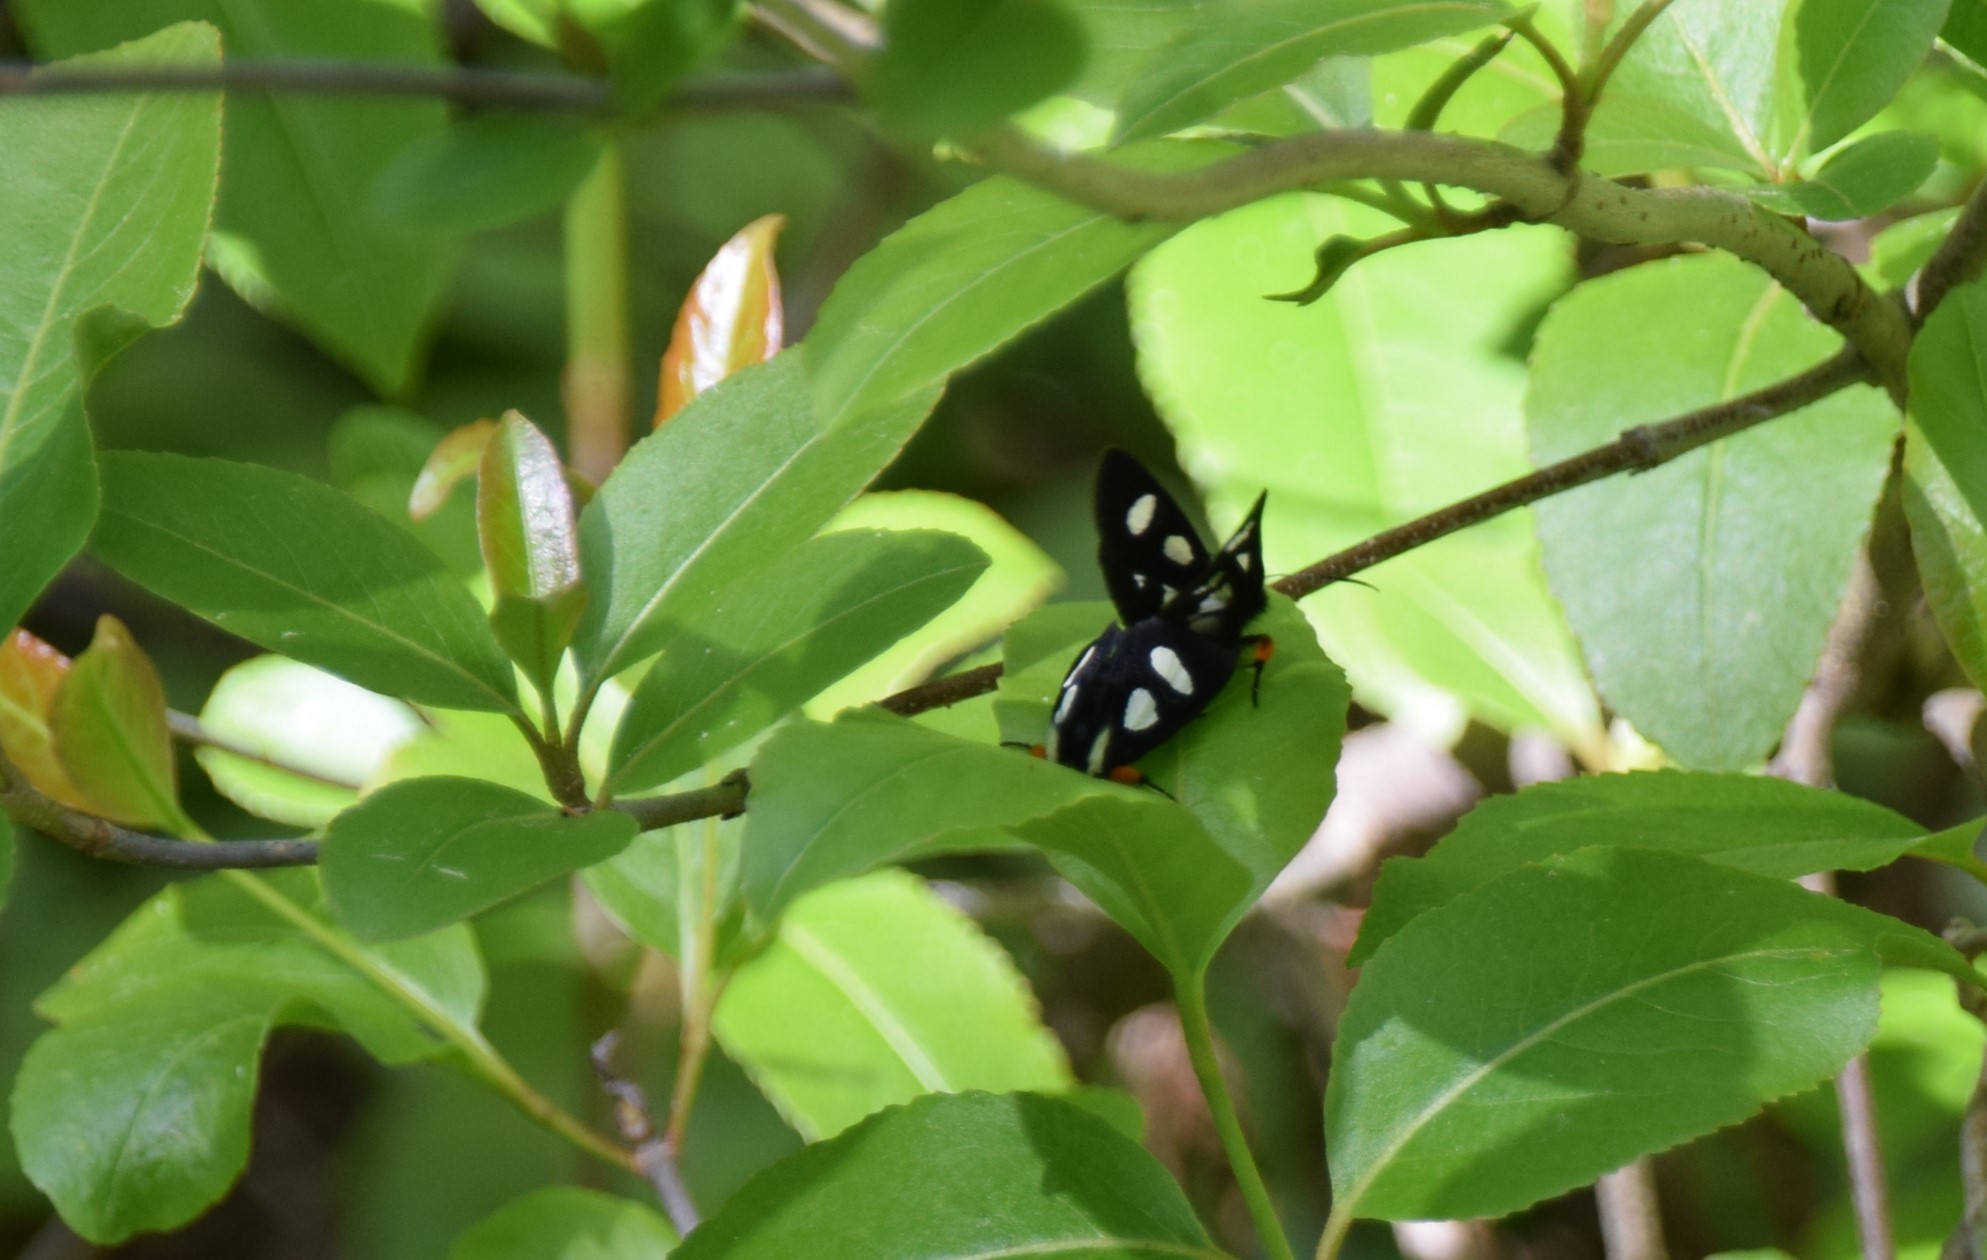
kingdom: Animalia
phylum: Arthropoda
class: Insecta
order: Lepidoptera
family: Noctuidae
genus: Alypia
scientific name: Alypia langtonii
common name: Fireweed caterpillar
